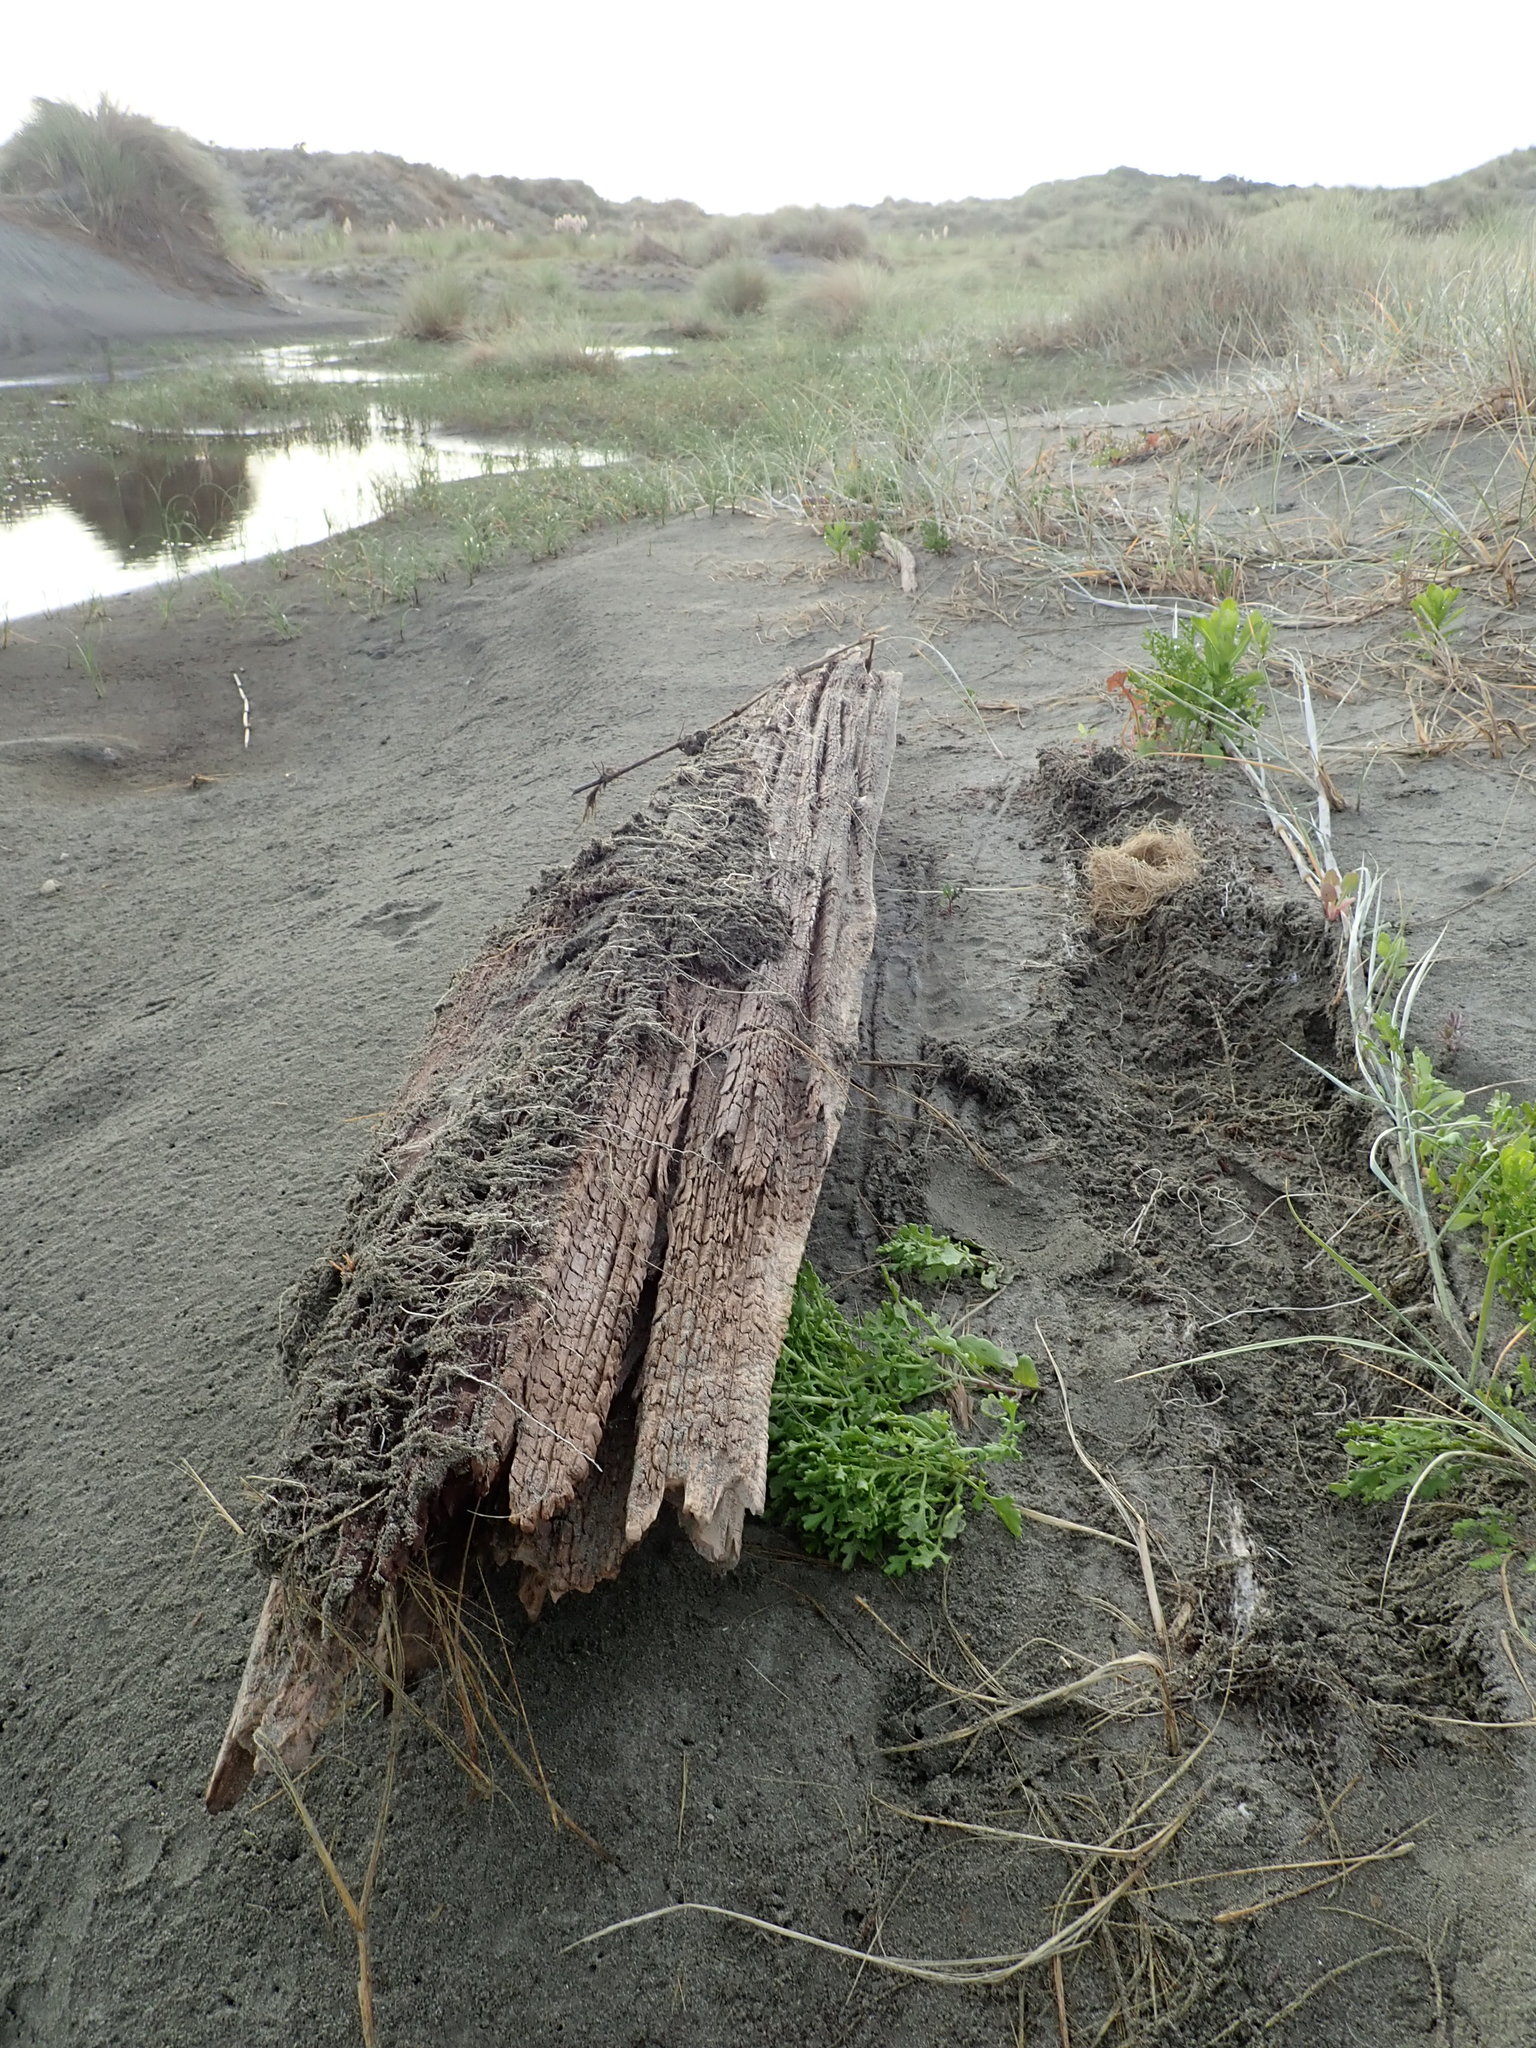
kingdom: Animalia
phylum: Chordata
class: Mammalia
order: Rodentia
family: Muridae
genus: Mus
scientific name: Mus musculus
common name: House mouse
